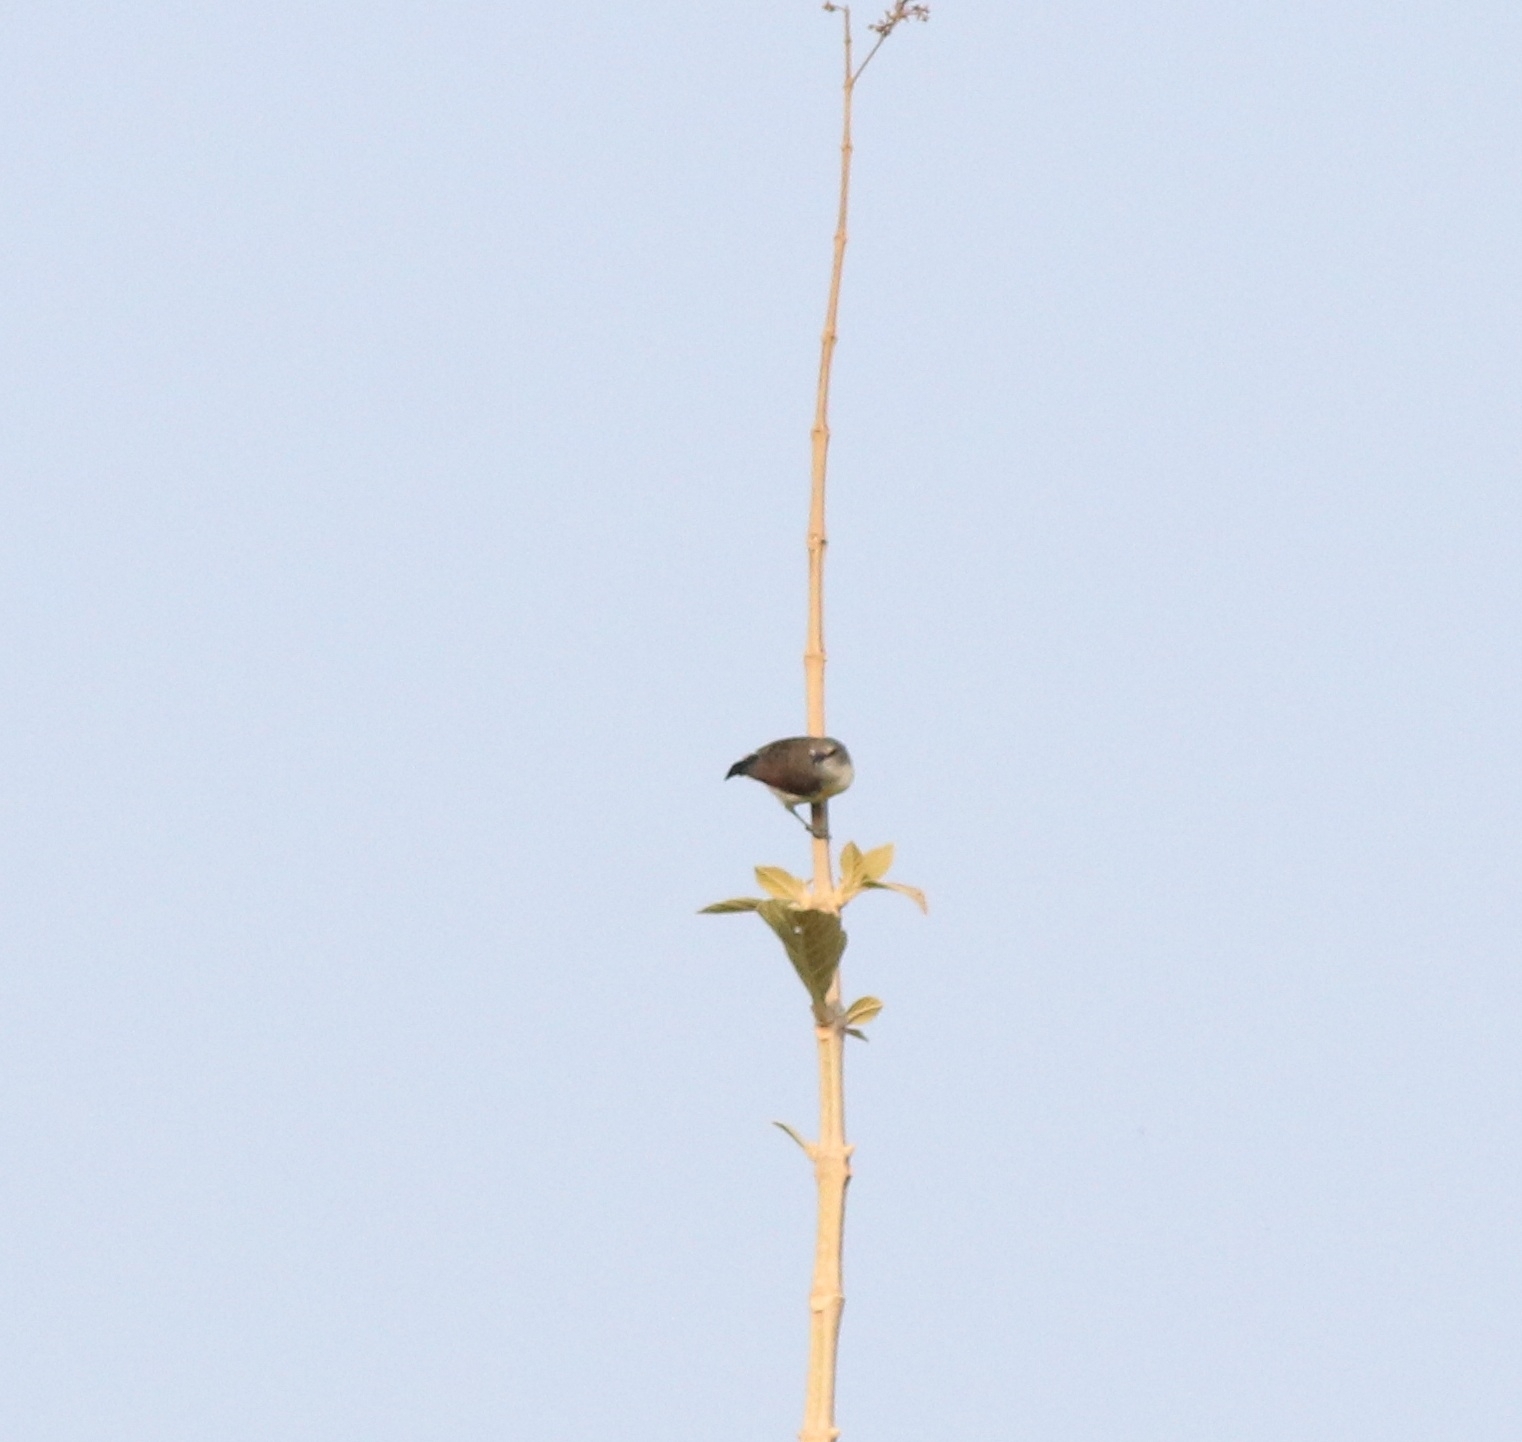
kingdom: Animalia
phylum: Chordata
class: Aves
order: Passeriformes
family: Nectariniidae
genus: Leptocoma
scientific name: Leptocoma zeylonica
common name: Purple-rumped sunbird
